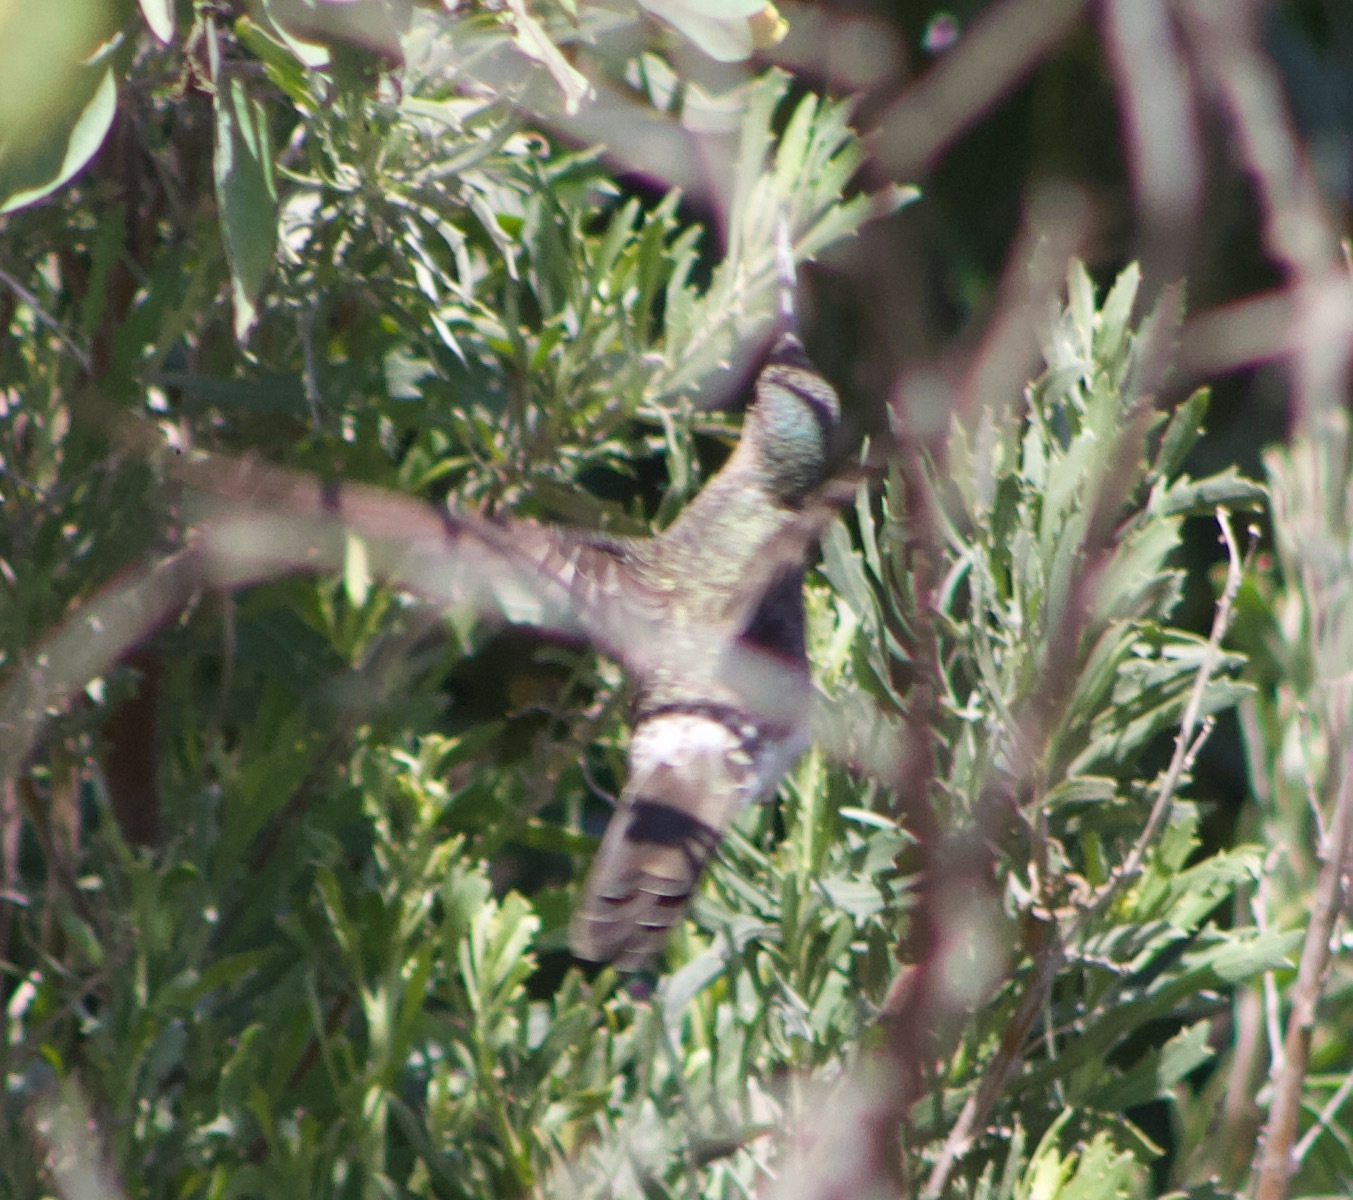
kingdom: Animalia
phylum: Chordata
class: Aves
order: Apodiformes
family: Trochilidae
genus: Patagona
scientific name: Patagona gigas
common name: Giant hummingbird
